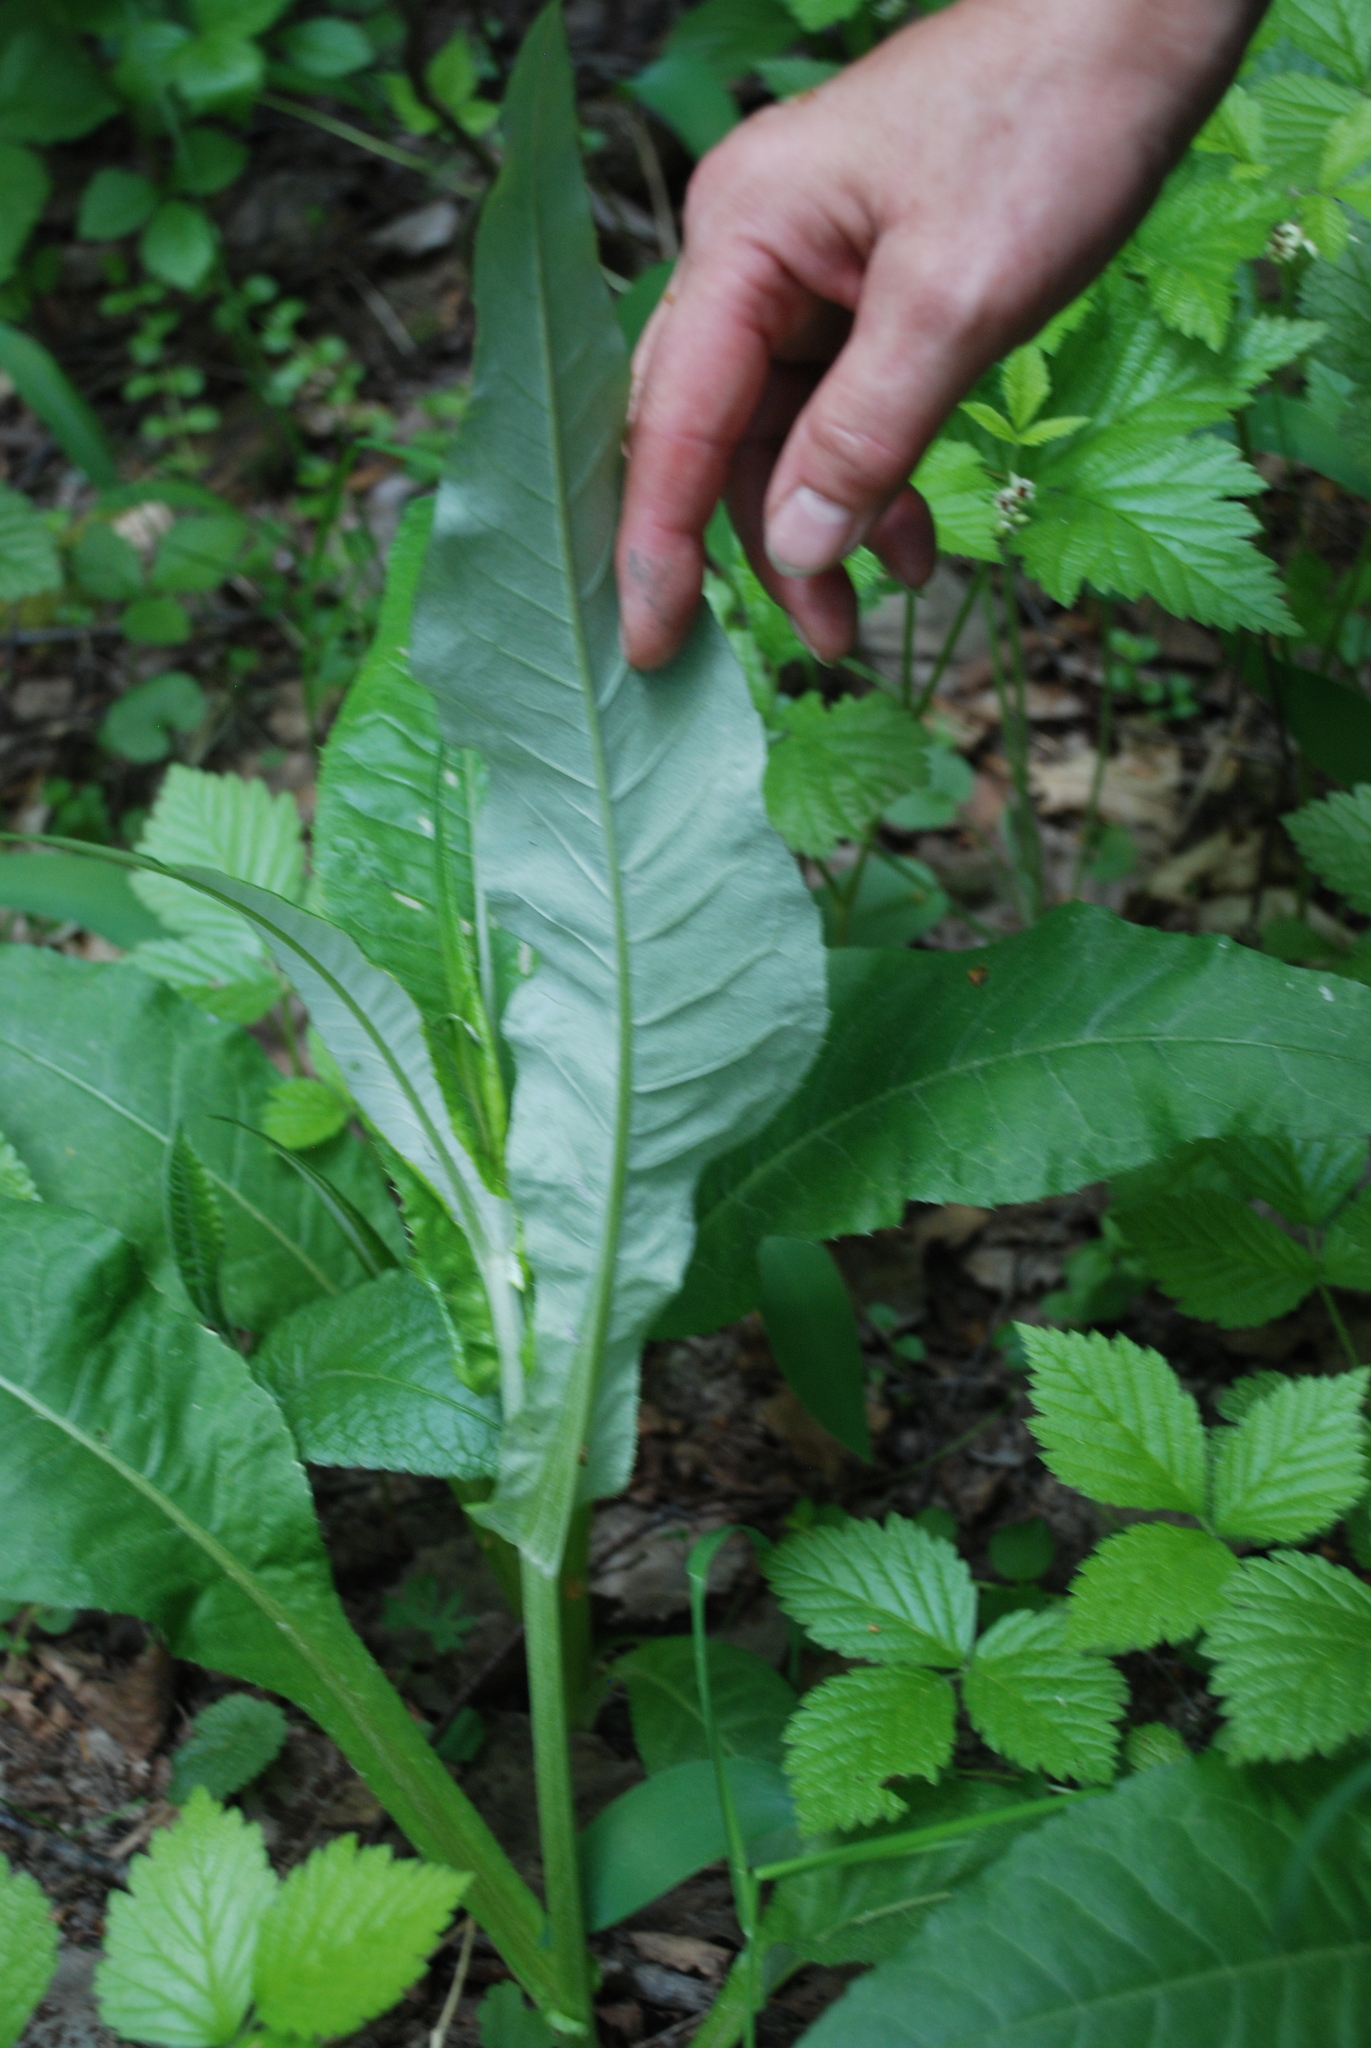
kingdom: Plantae
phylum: Tracheophyta
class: Magnoliopsida
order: Asterales
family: Asteraceae
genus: Cirsium
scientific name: Cirsium heterophyllum
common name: Melancholy thistle
